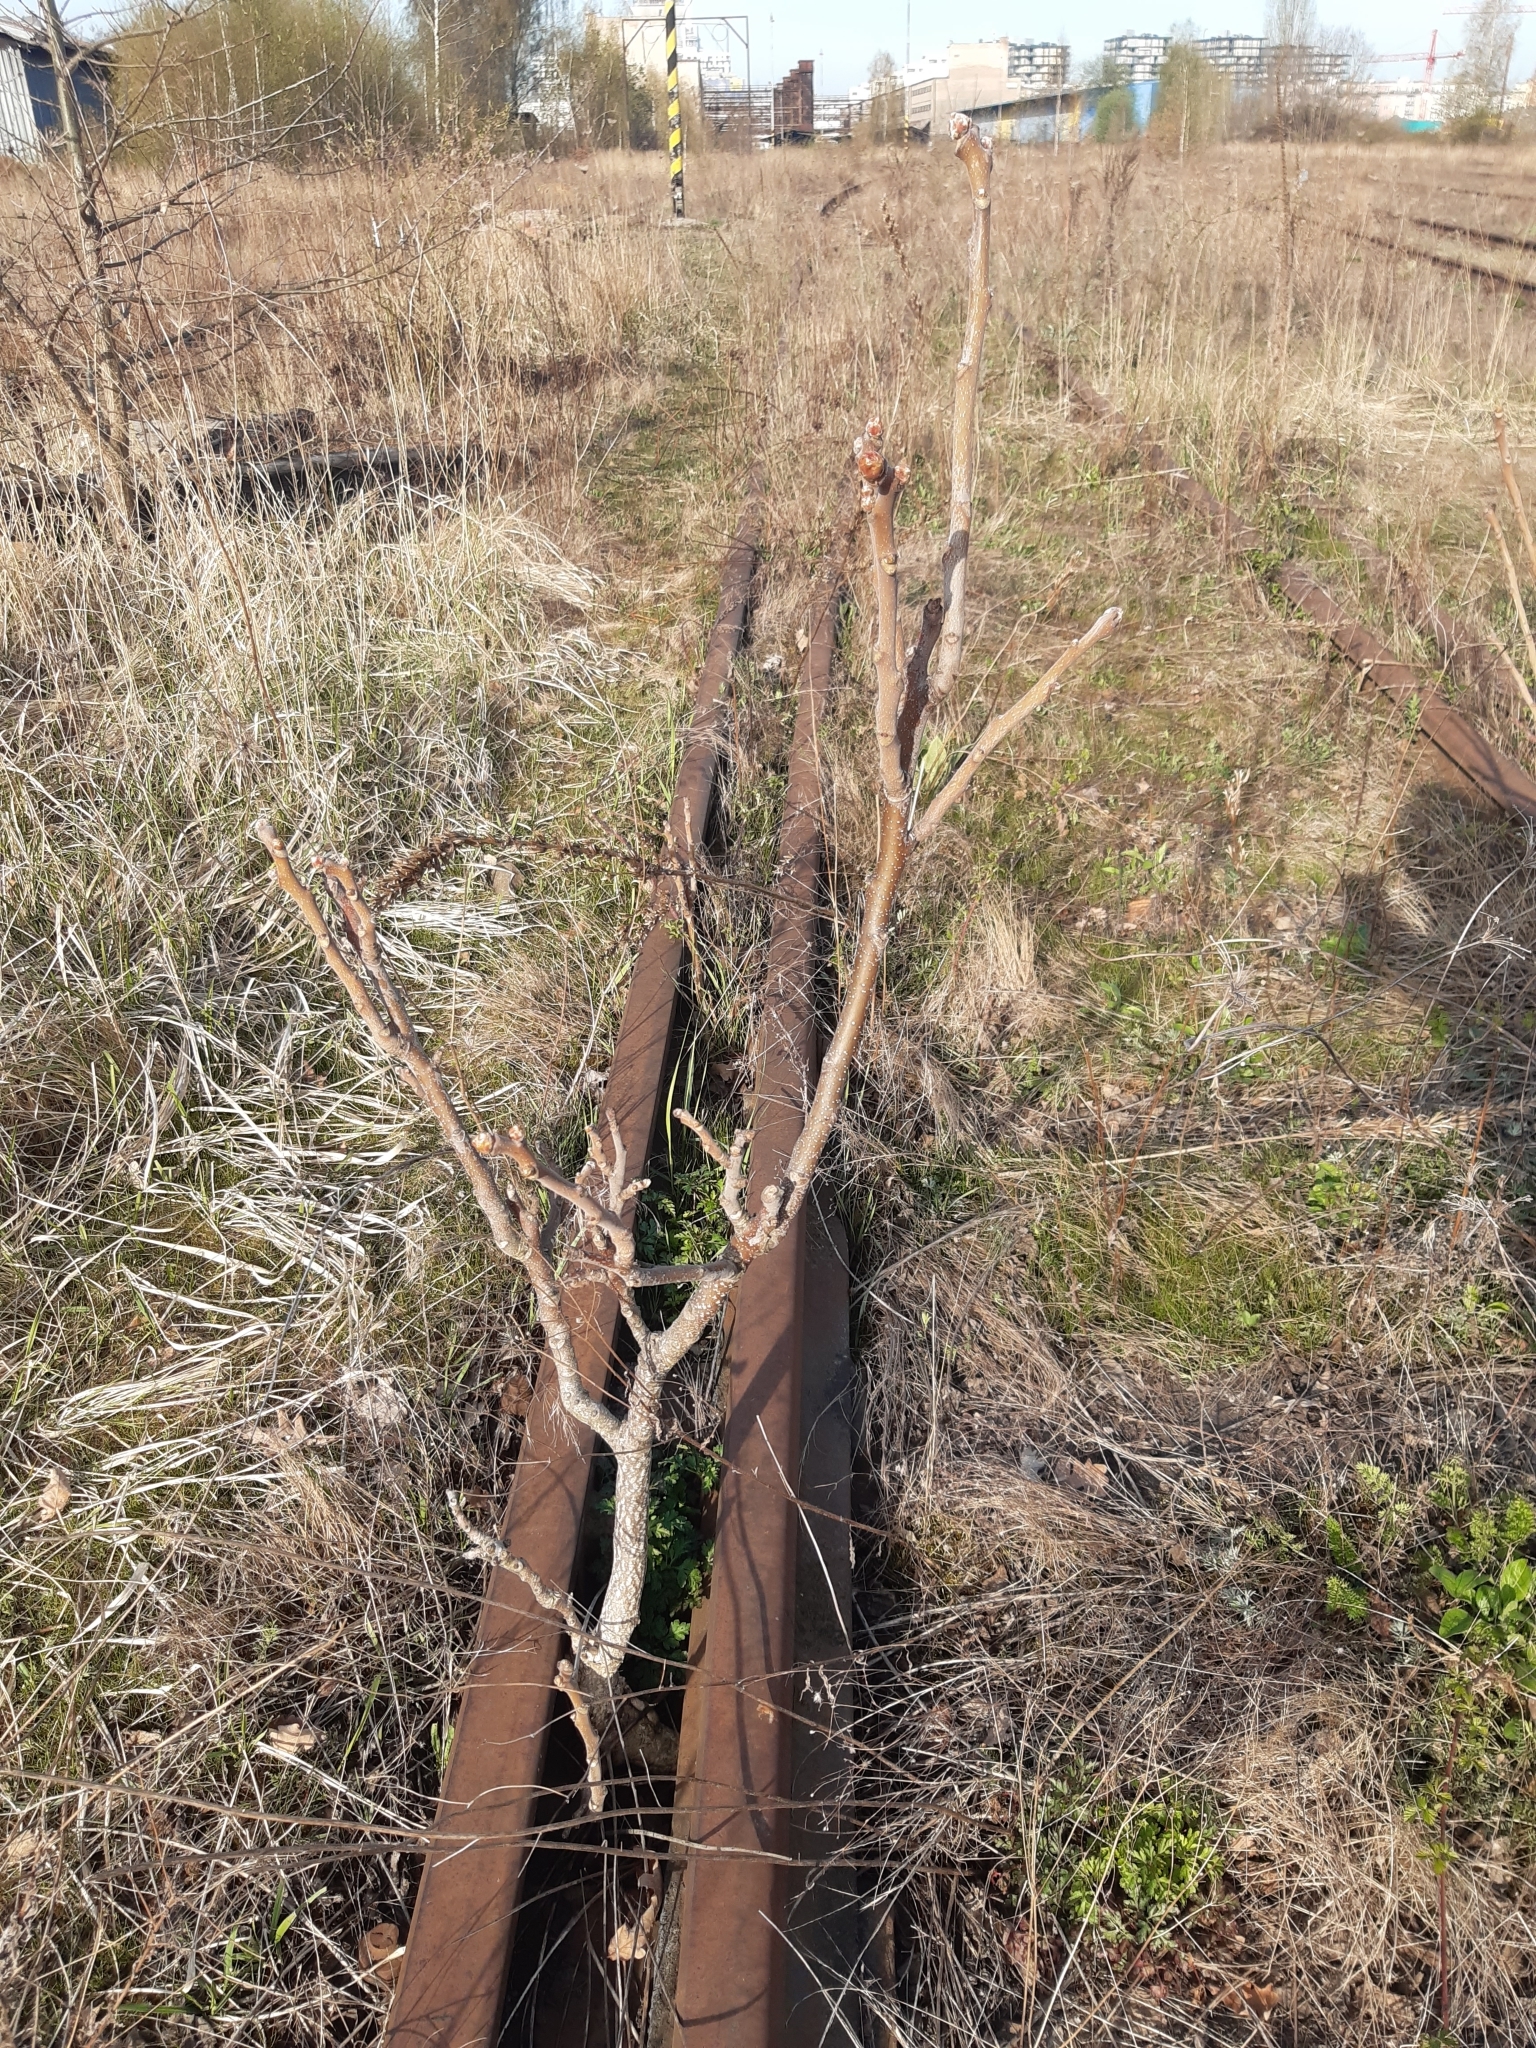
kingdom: Plantae
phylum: Tracheophyta
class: Magnoliopsida
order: Sapindales
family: Simaroubaceae
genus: Ailanthus
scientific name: Ailanthus altissima
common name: Tree-of-heaven
